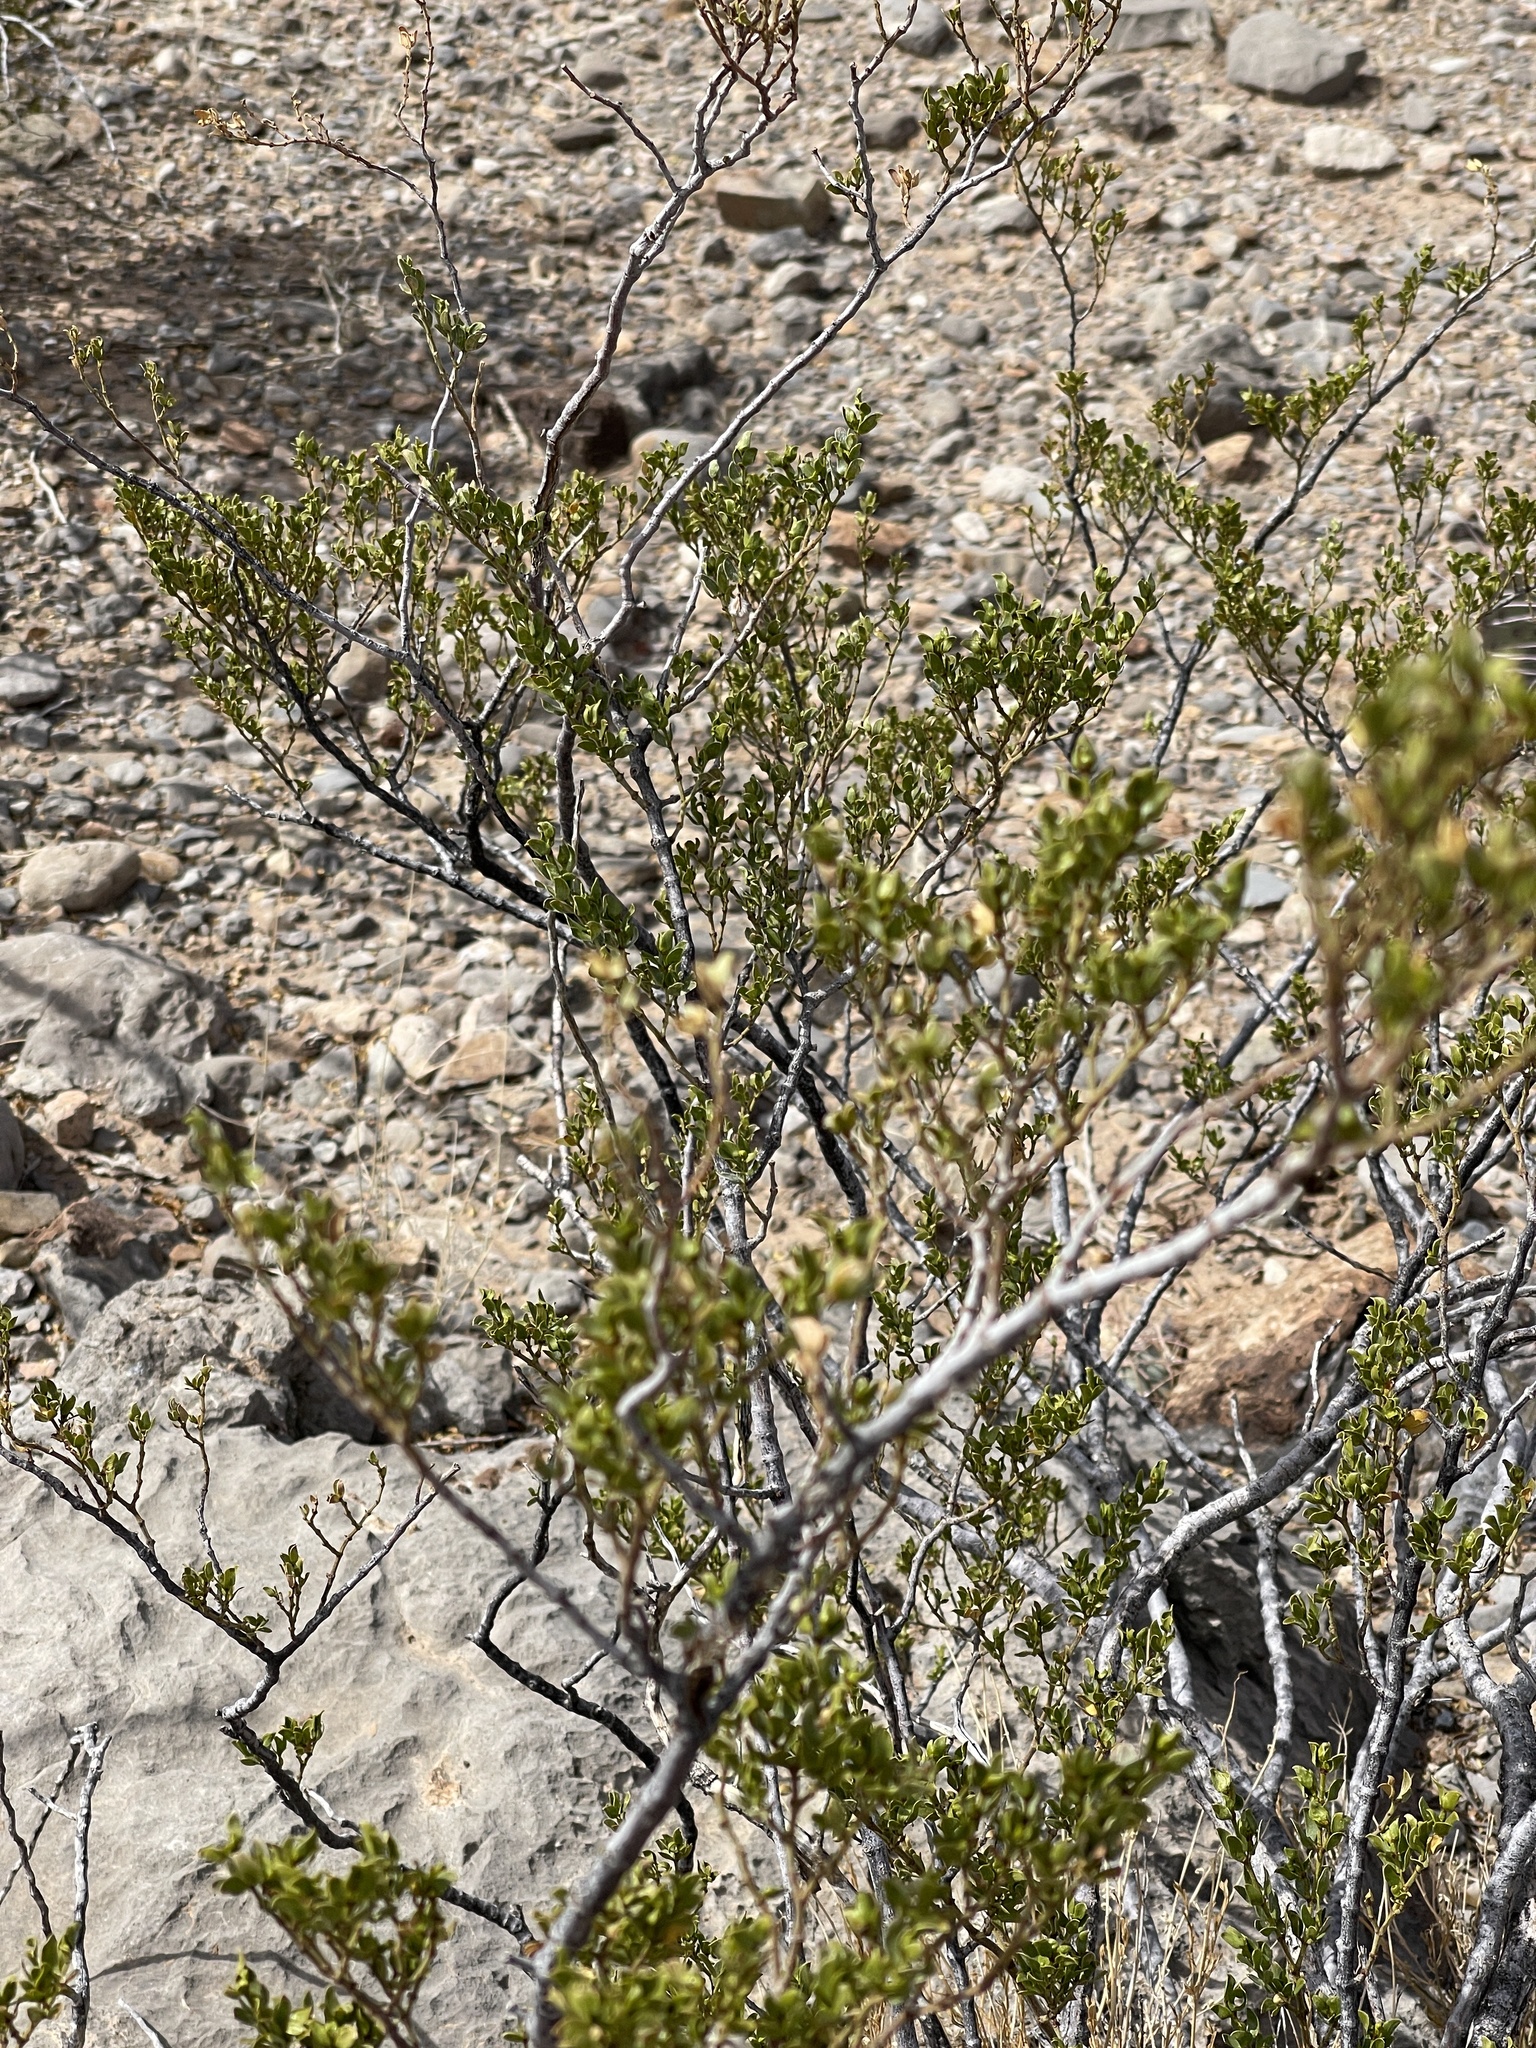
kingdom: Plantae
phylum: Tracheophyta
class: Magnoliopsida
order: Zygophyllales
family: Zygophyllaceae
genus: Larrea
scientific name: Larrea tridentata
